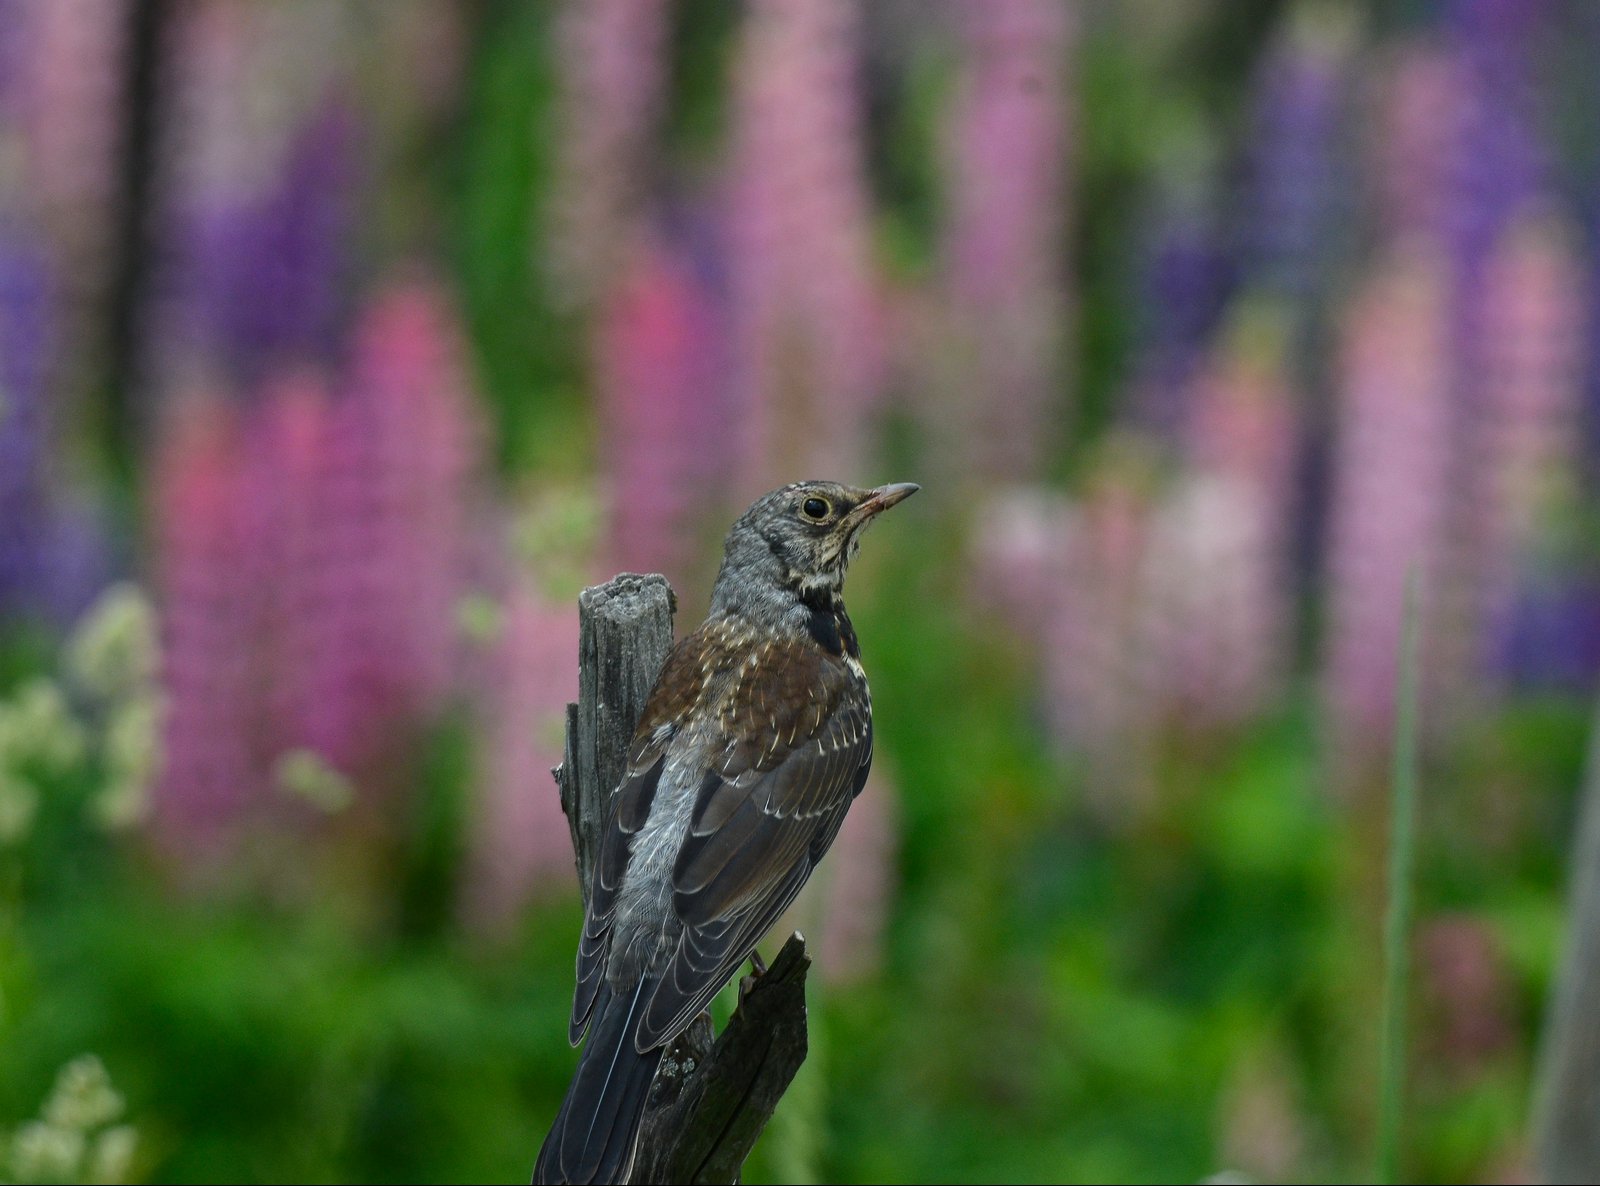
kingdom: Animalia
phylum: Chordata
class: Aves
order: Passeriformes
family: Turdidae
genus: Turdus
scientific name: Turdus pilaris
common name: Fieldfare
